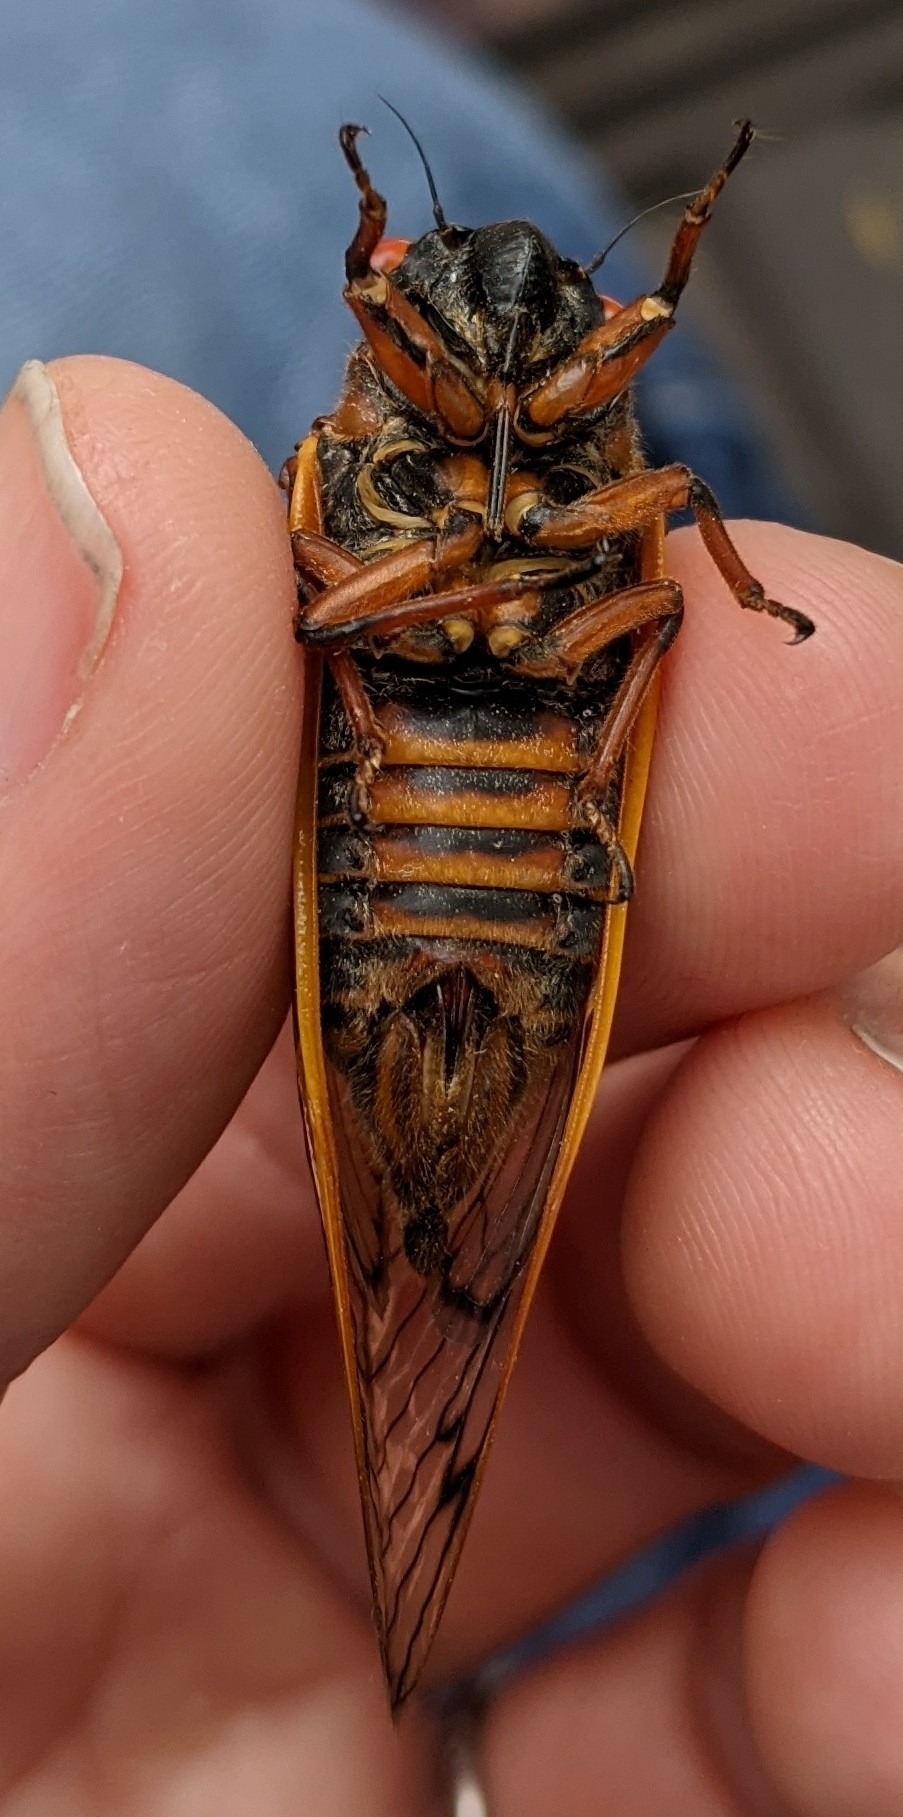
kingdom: Animalia
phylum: Arthropoda
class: Insecta
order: Hemiptera
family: Cicadidae
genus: Magicicada
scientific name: Magicicada septendecim
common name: Periodical cicada
